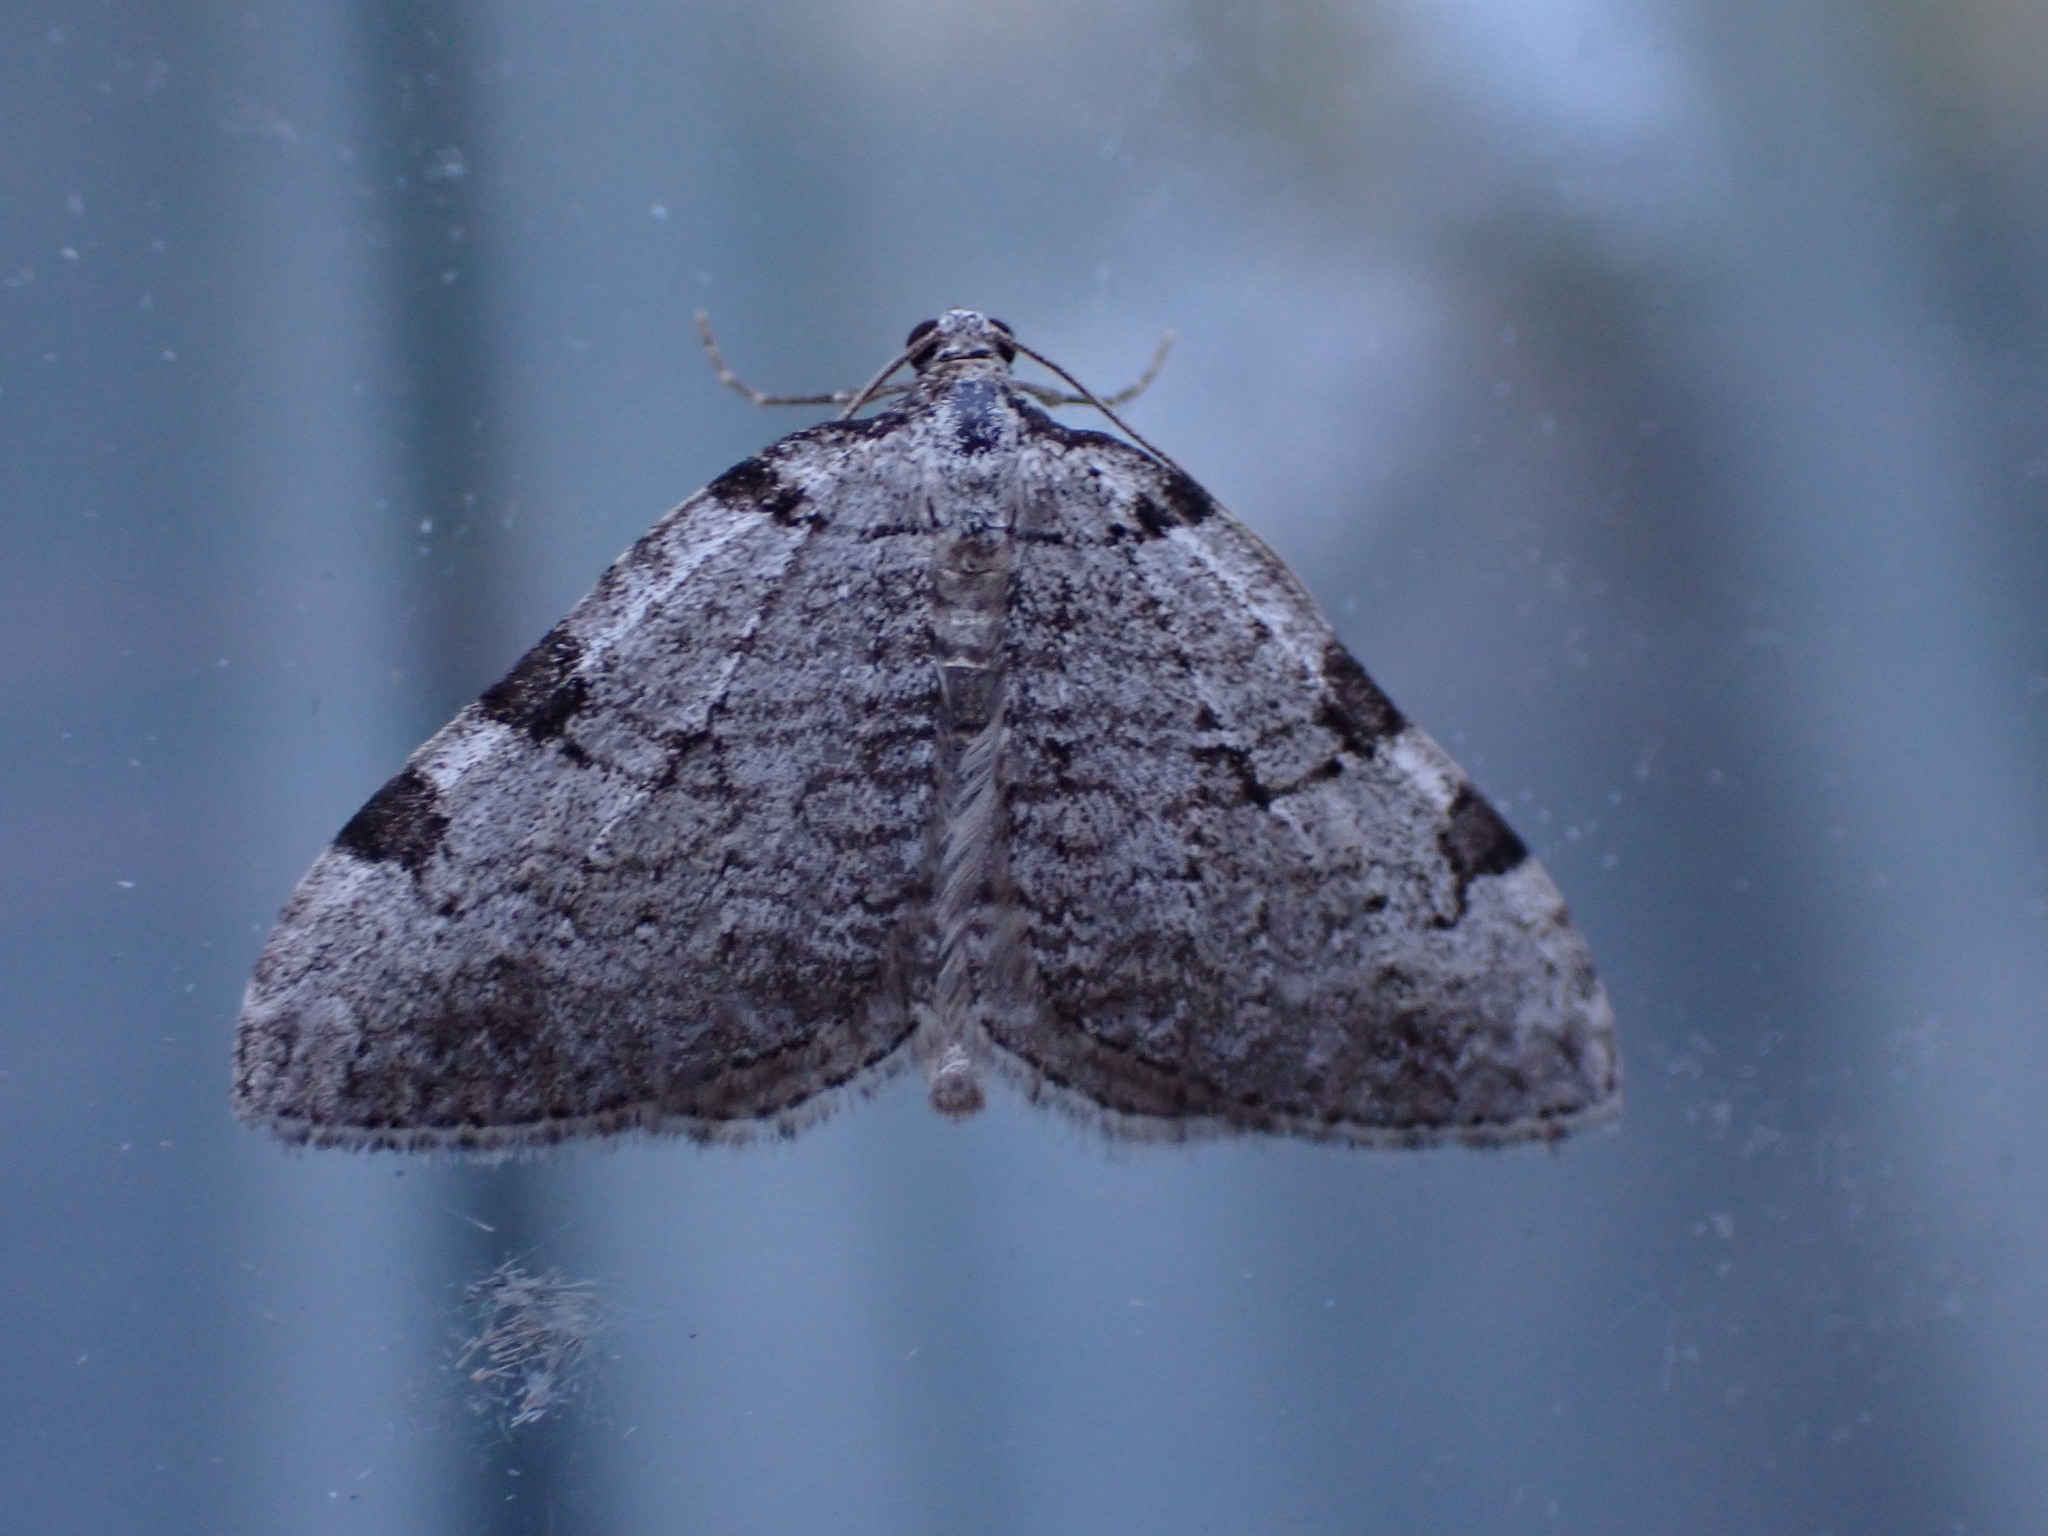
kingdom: Animalia
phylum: Arthropoda
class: Insecta
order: Lepidoptera
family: Geometridae
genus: Perizoma
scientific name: Perizoma costiguttata
